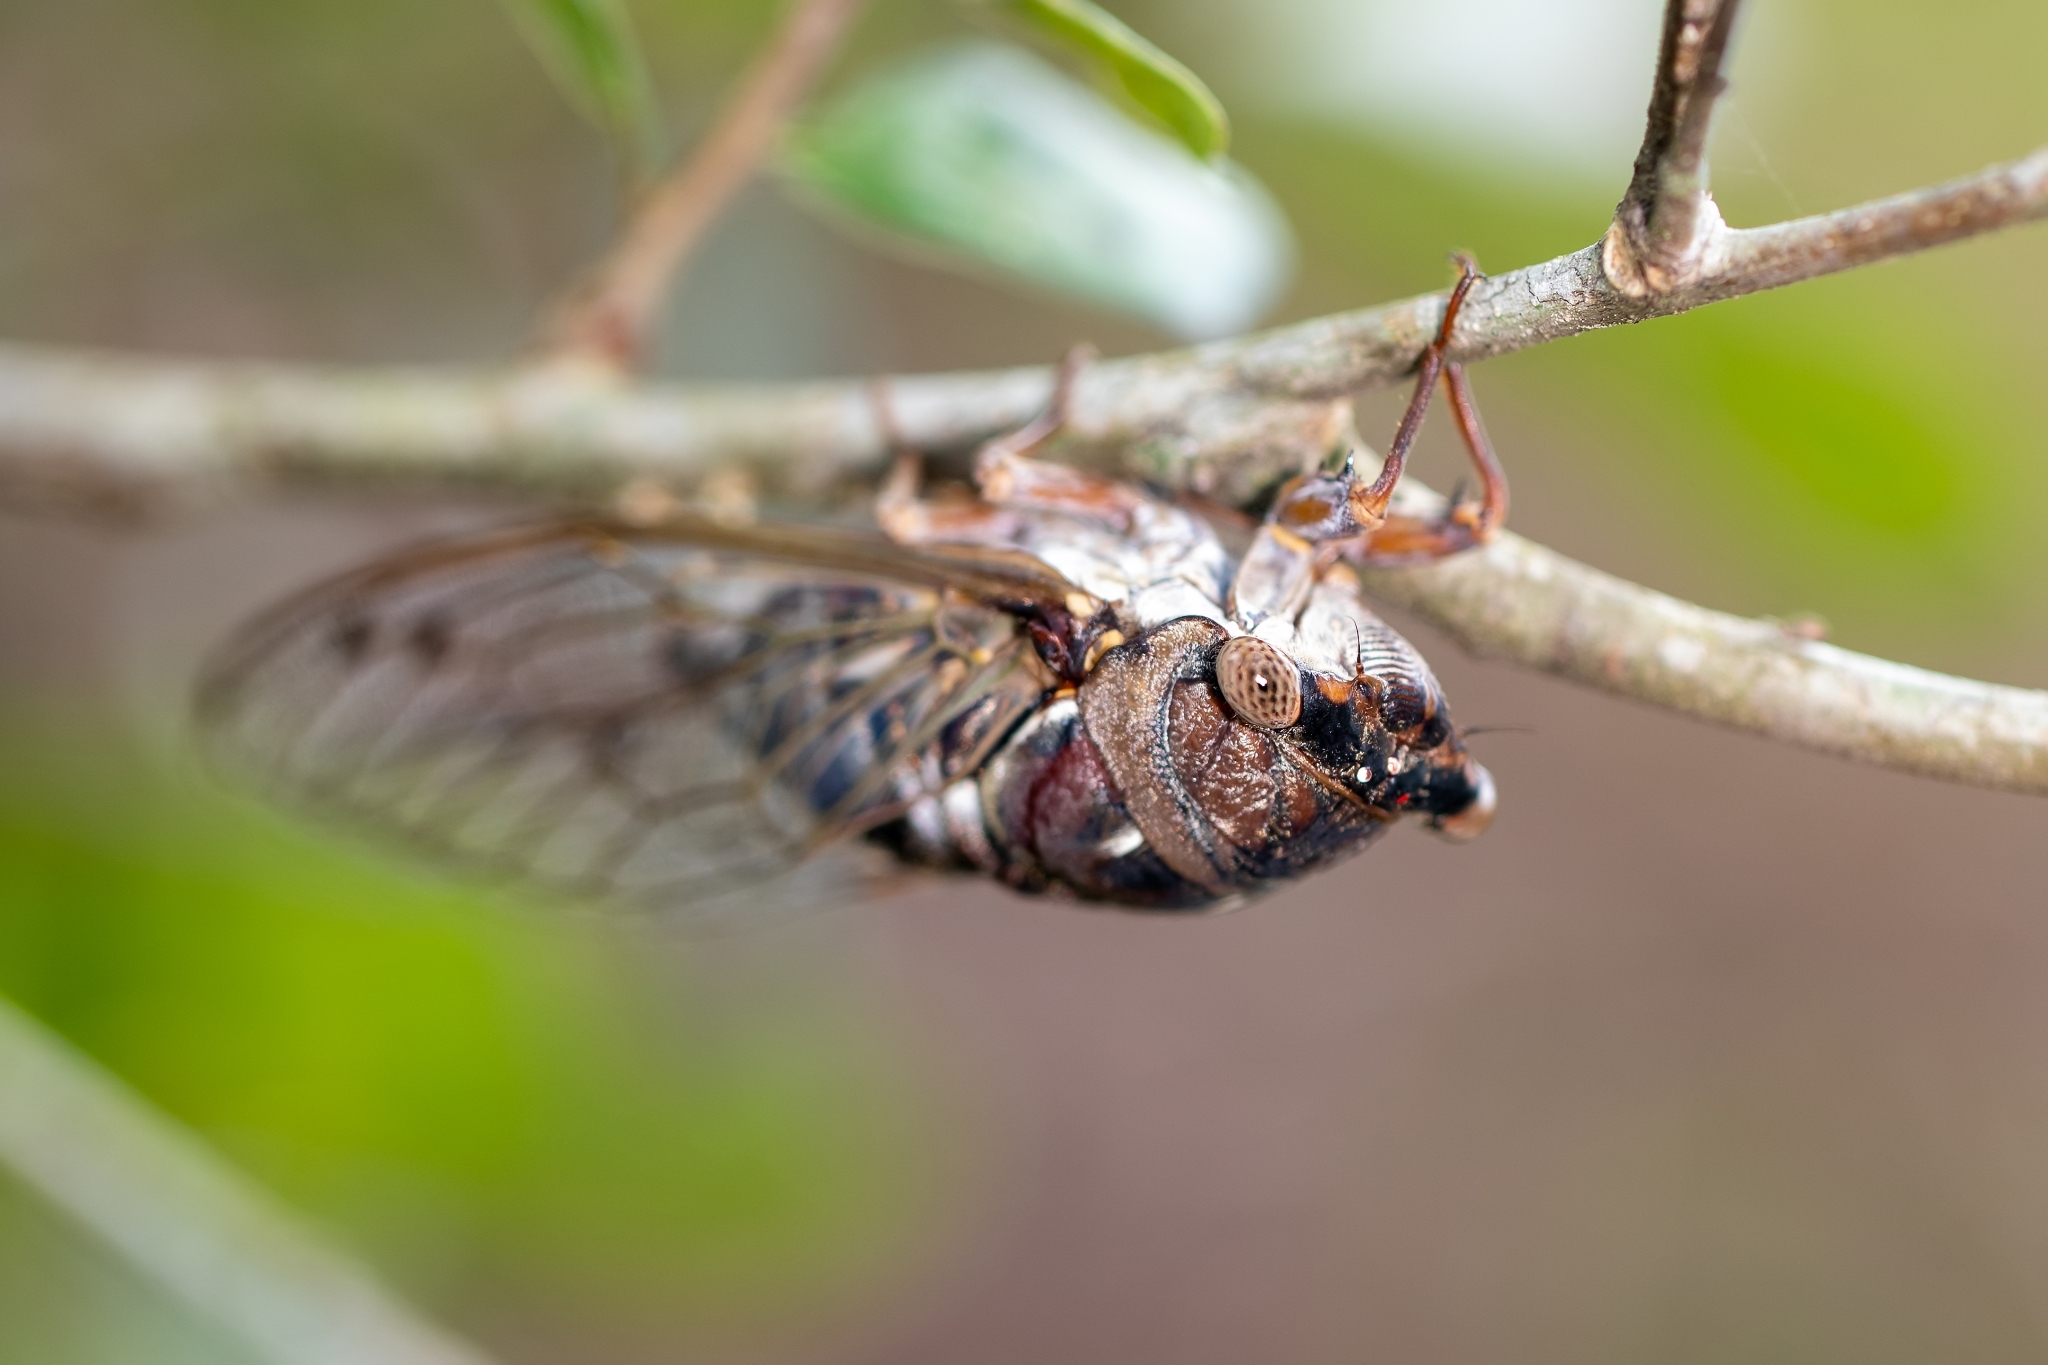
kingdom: Animalia
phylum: Arthropoda
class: Insecta
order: Hemiptera
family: Cicadidae
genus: Megatibicen
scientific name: Megatibicen resonans
